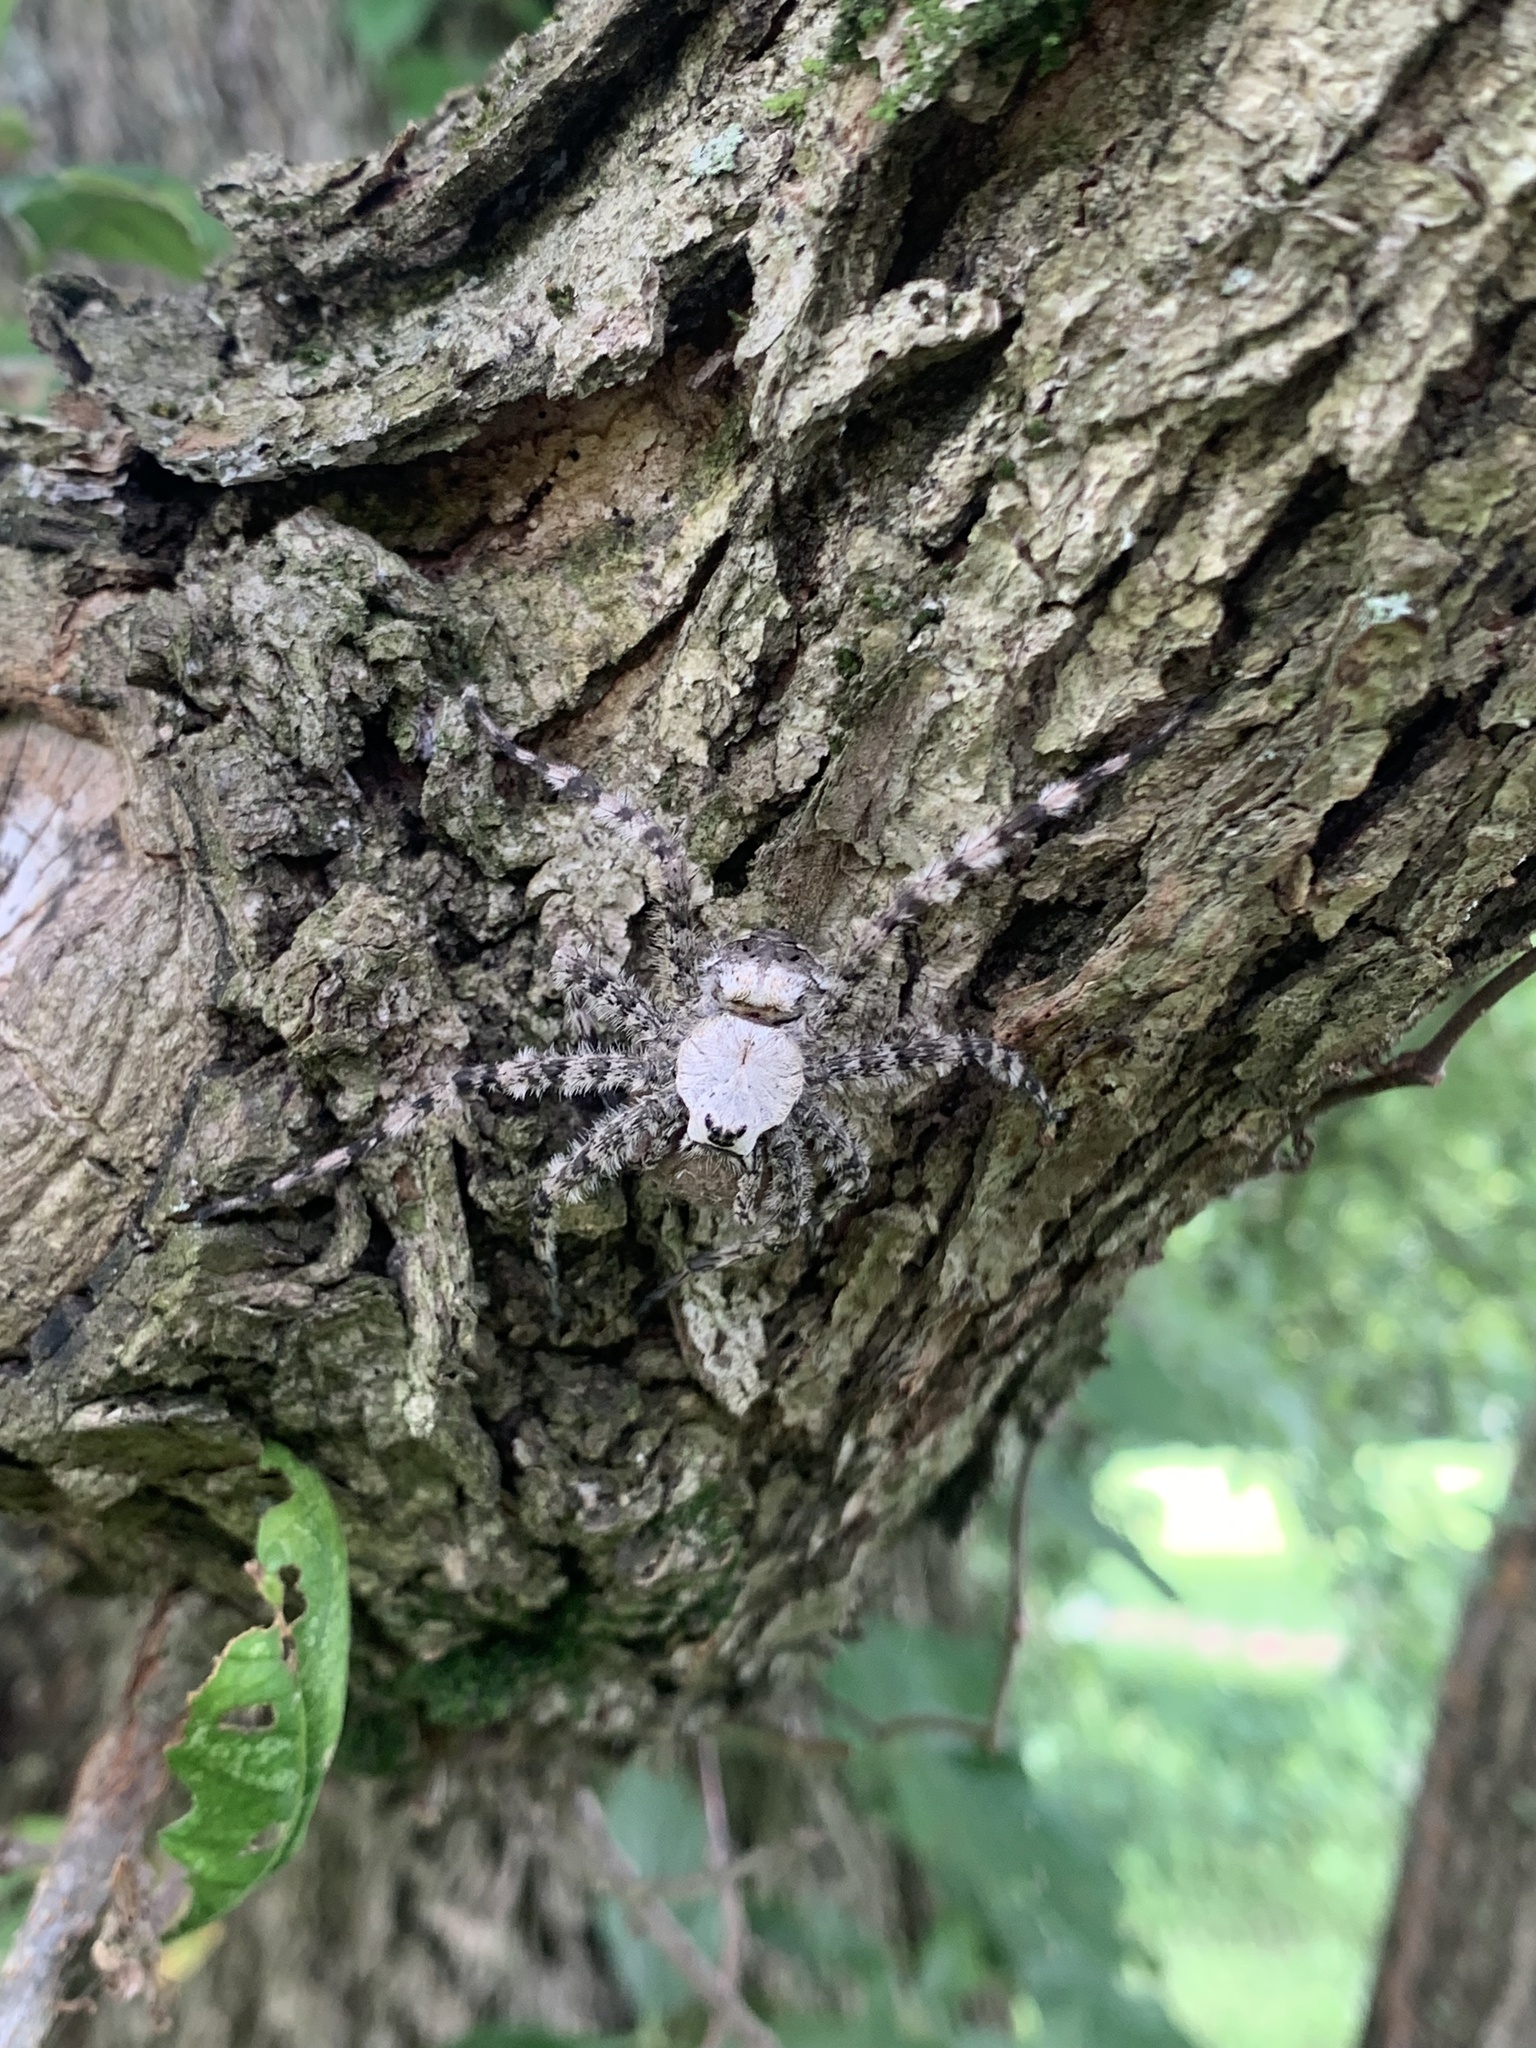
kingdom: Animalia
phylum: Arthropoda
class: Arachnida
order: Araneae
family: Pisauridae
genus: Dolomedes
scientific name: Dolomedes albineus
